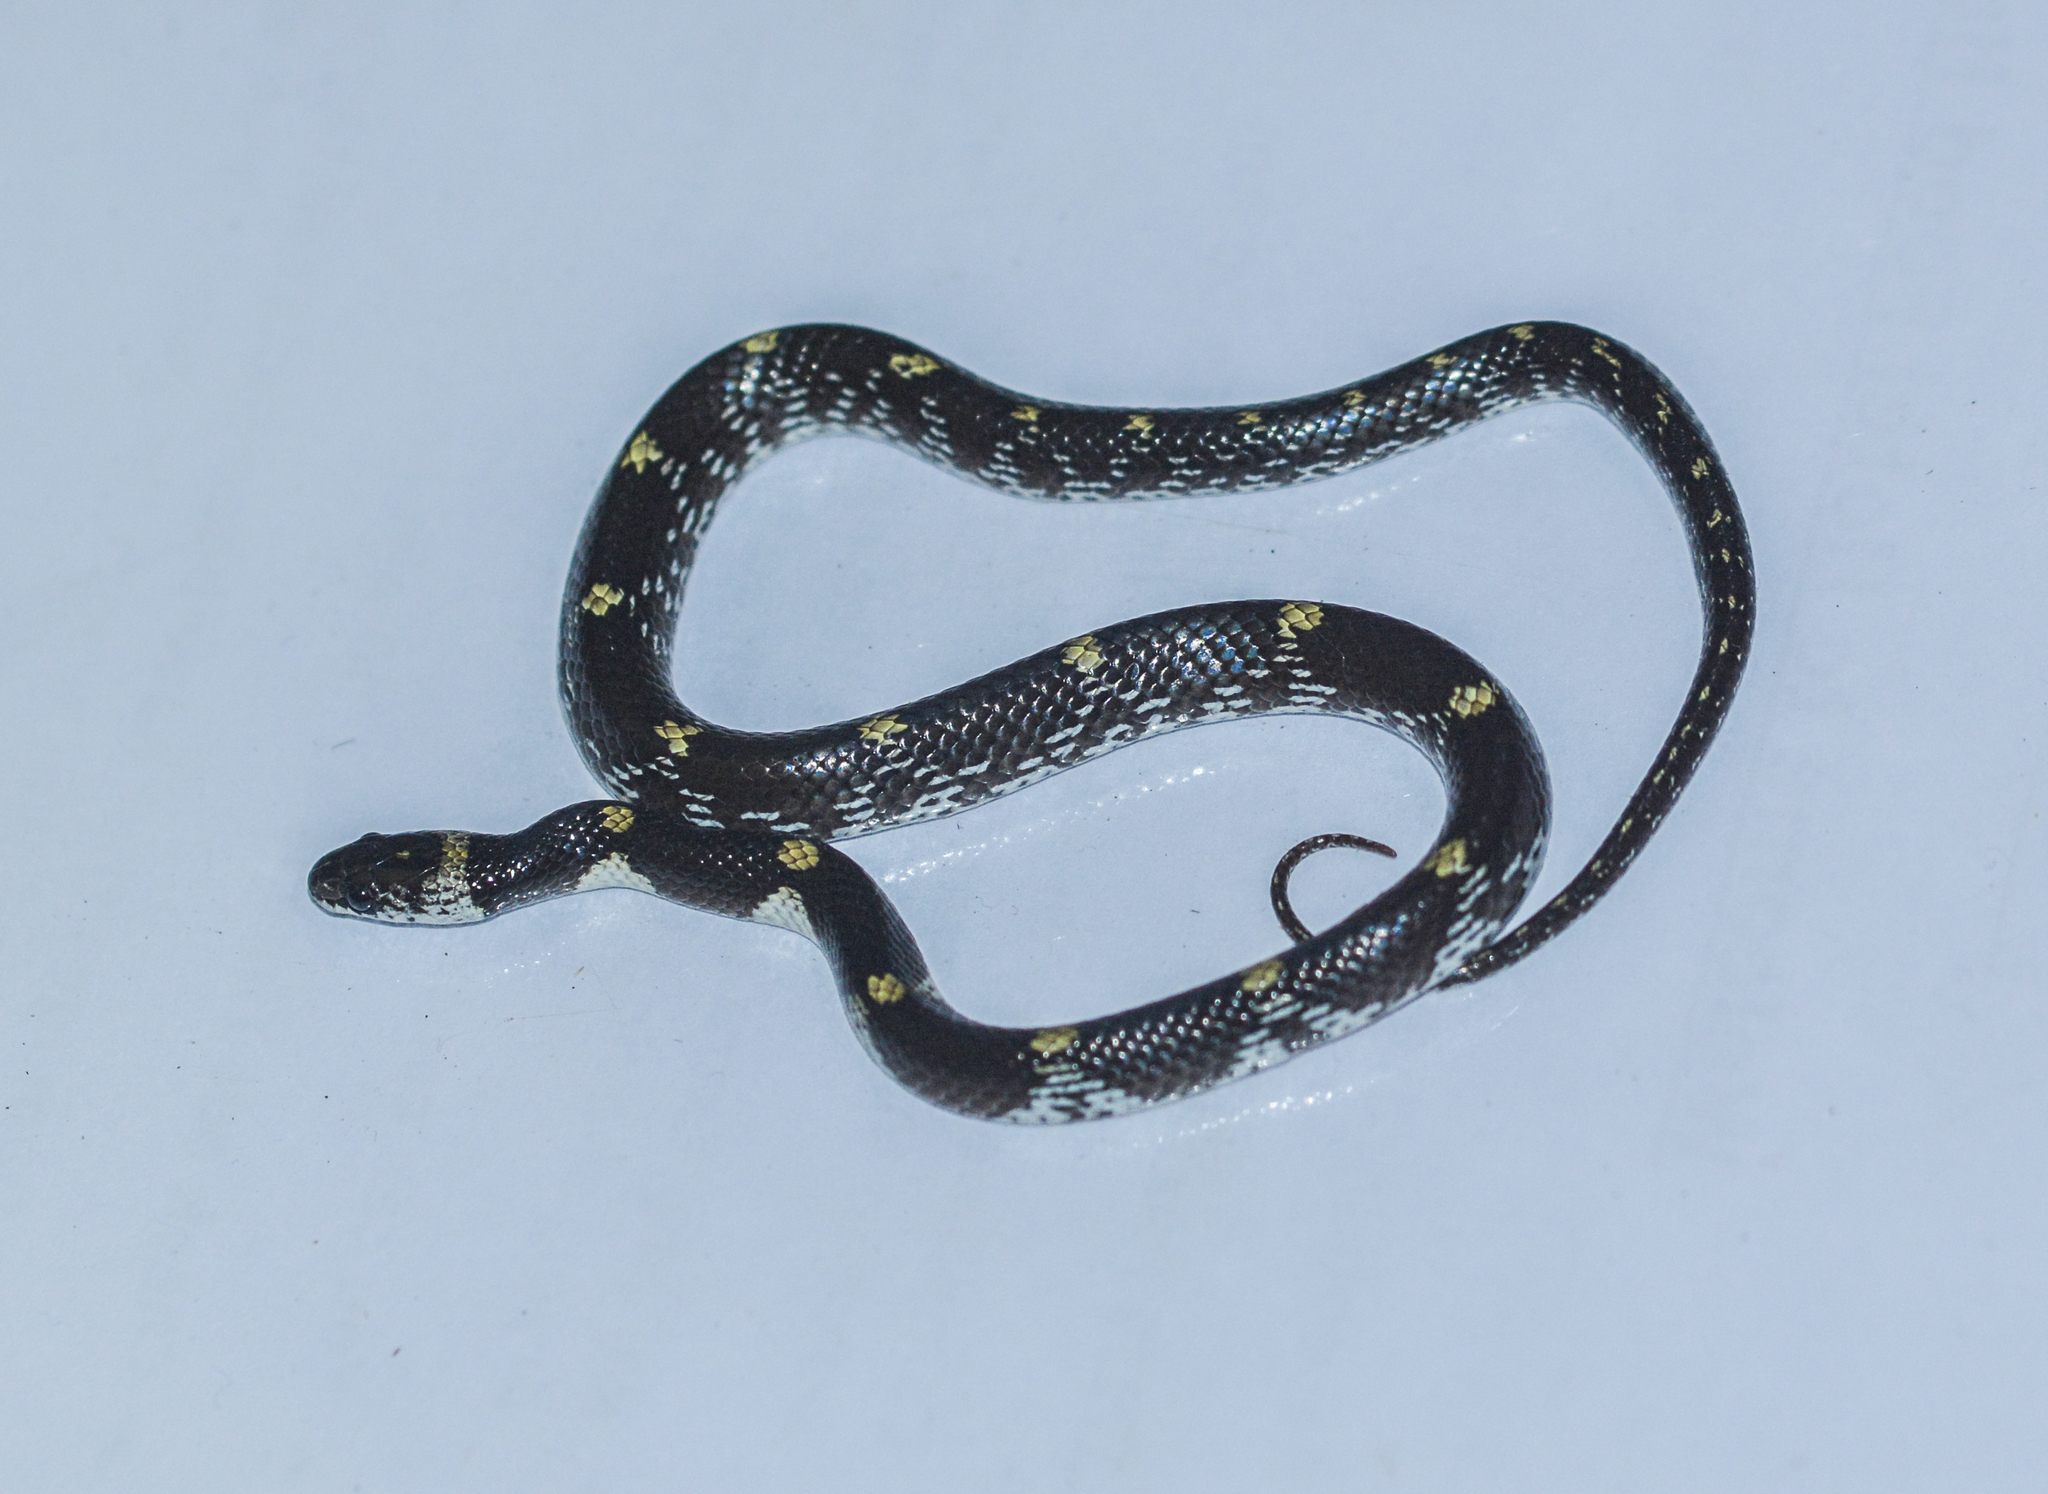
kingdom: Animalia
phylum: Chordata
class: Squamata
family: Colubridae
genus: Lycodon
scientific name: Lycodon striatus
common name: Barred wolf snake
